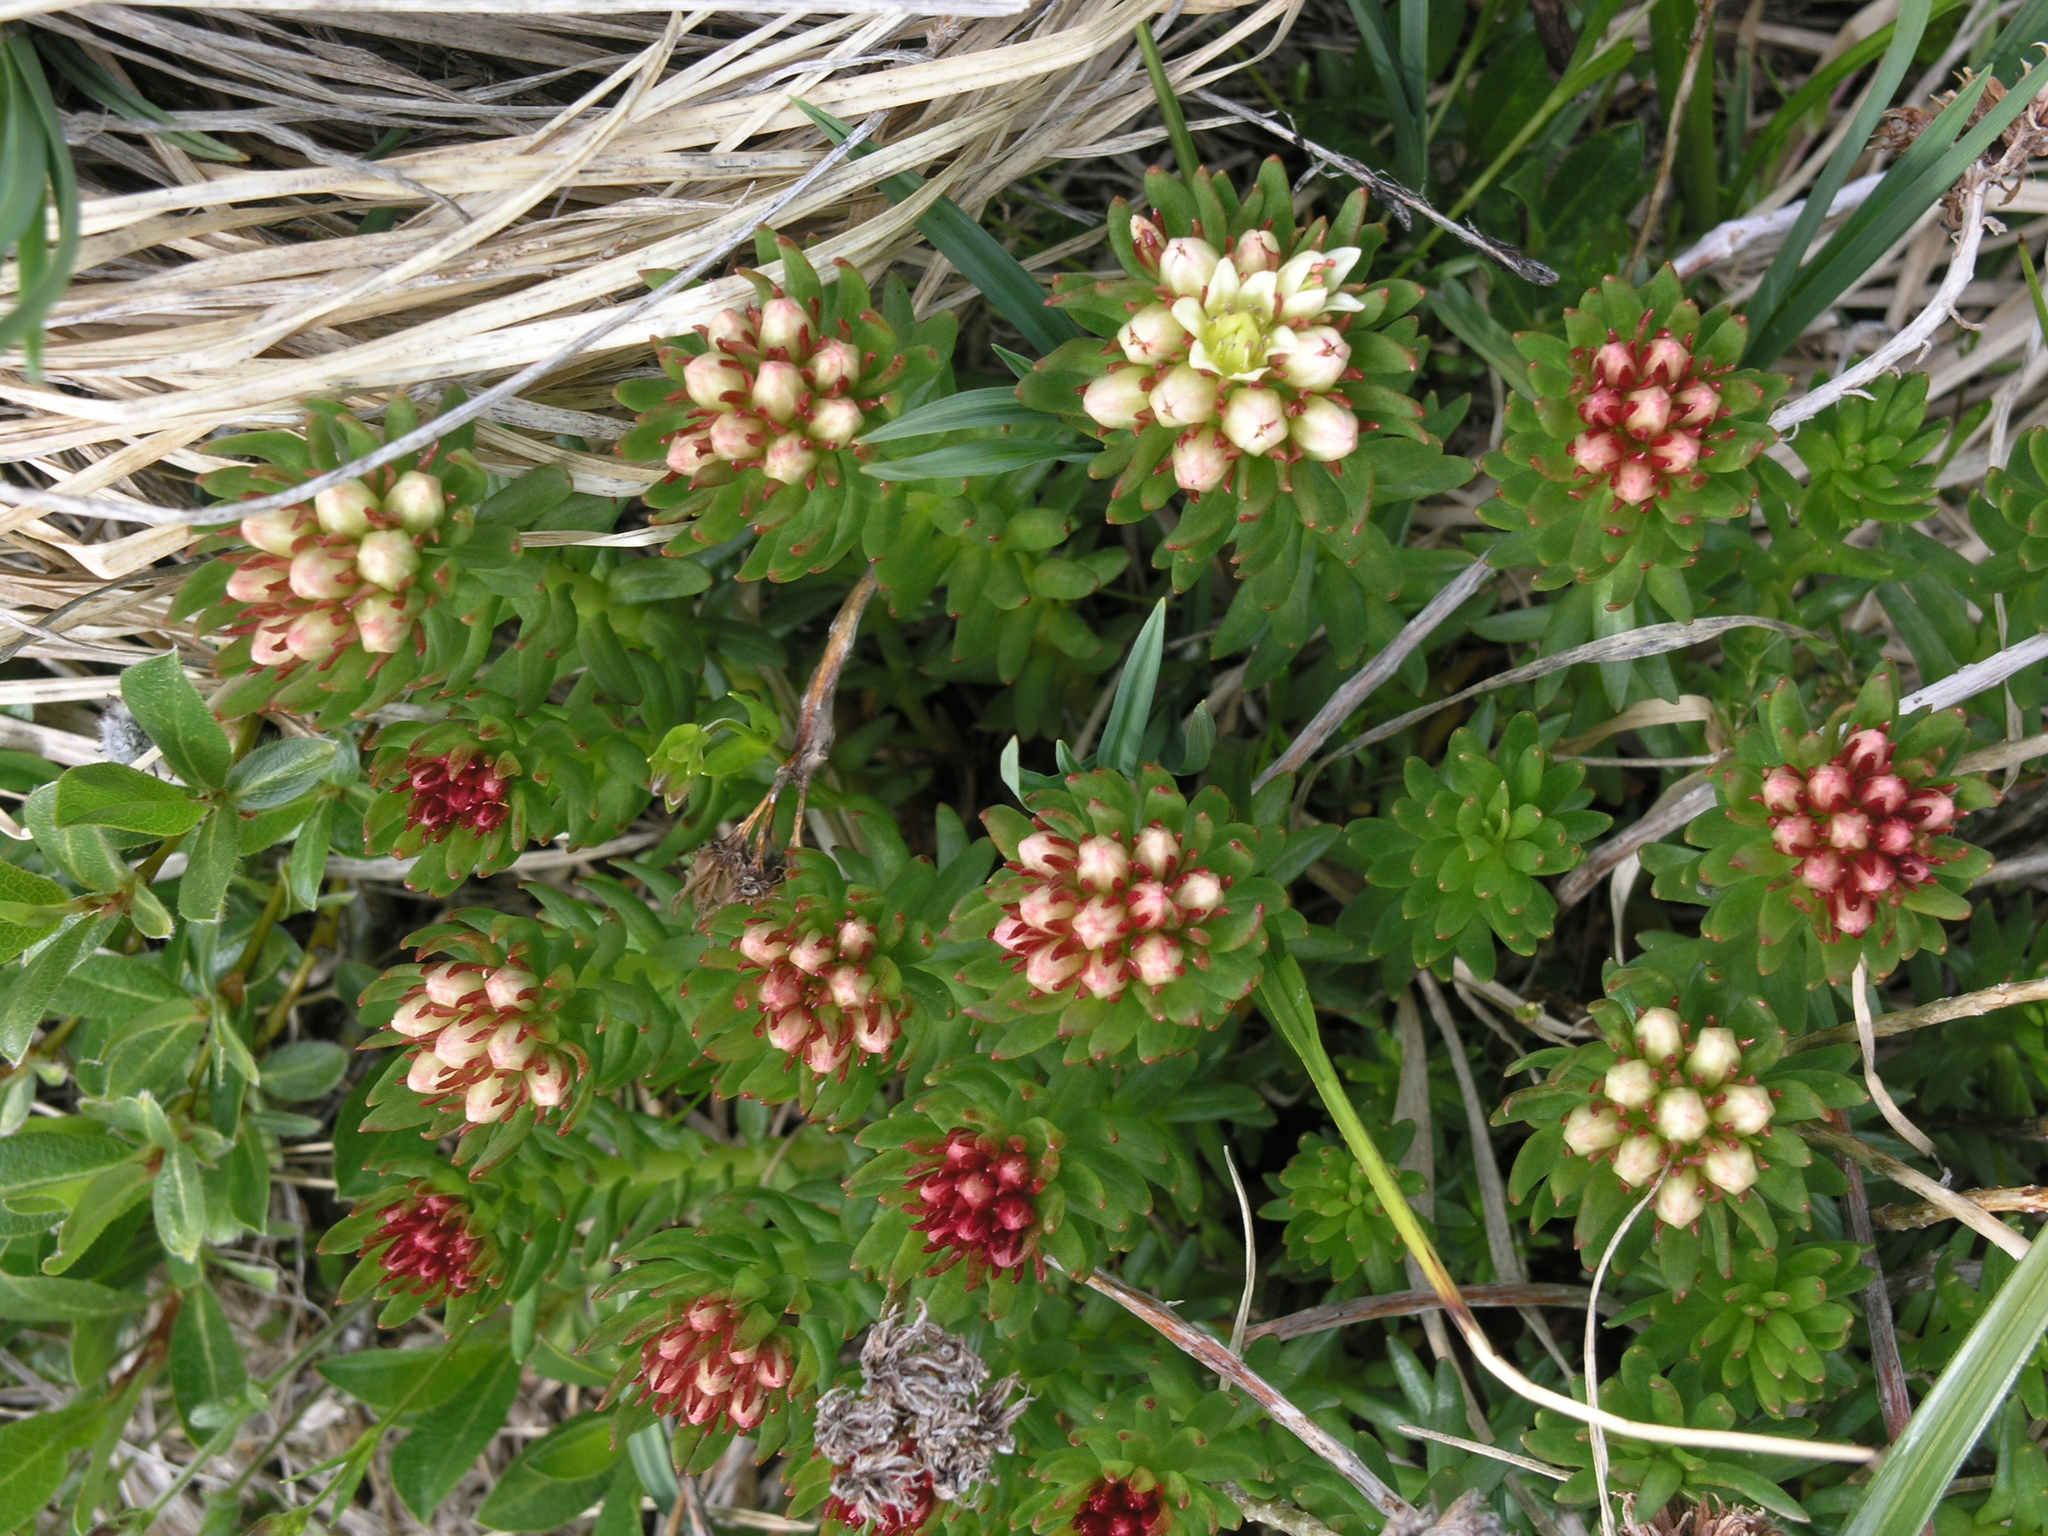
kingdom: Plantae
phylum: Tracheophyta
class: Magnoliopsida
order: Saxifragales
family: Crassulaceae
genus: Rhodiola
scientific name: Rhodiola algida
